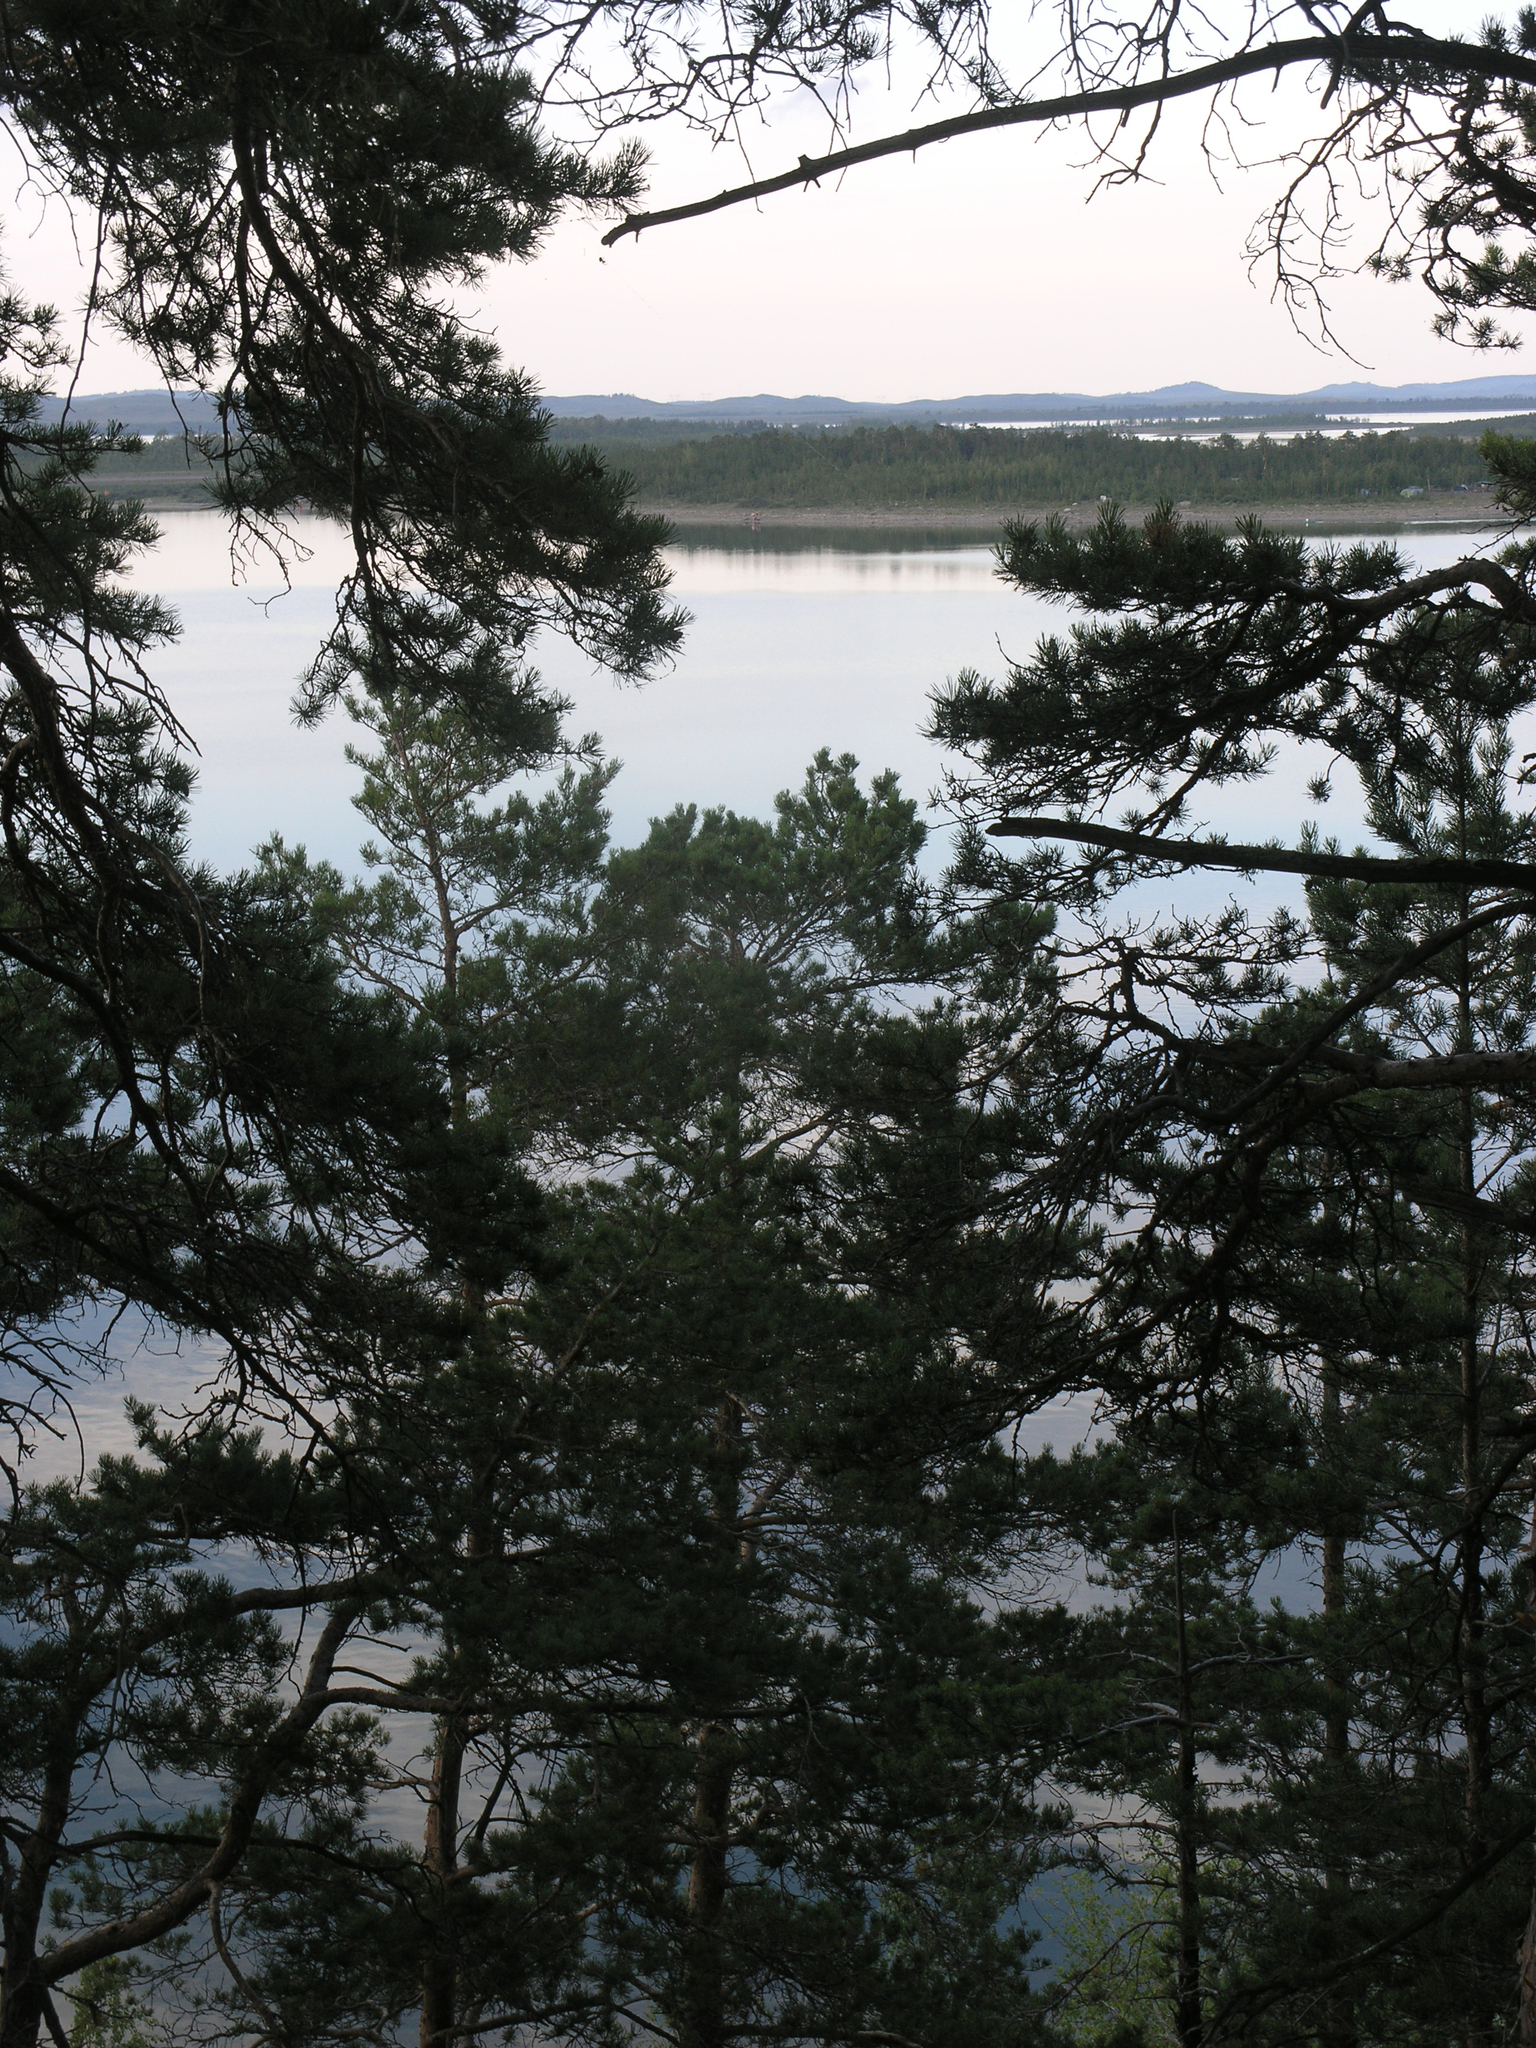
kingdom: Plantae
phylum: Tracheophyta
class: Pinopsida
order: Pinales
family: Pinaceae
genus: Pinus
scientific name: Pinus sylvestris
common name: Scots pine
